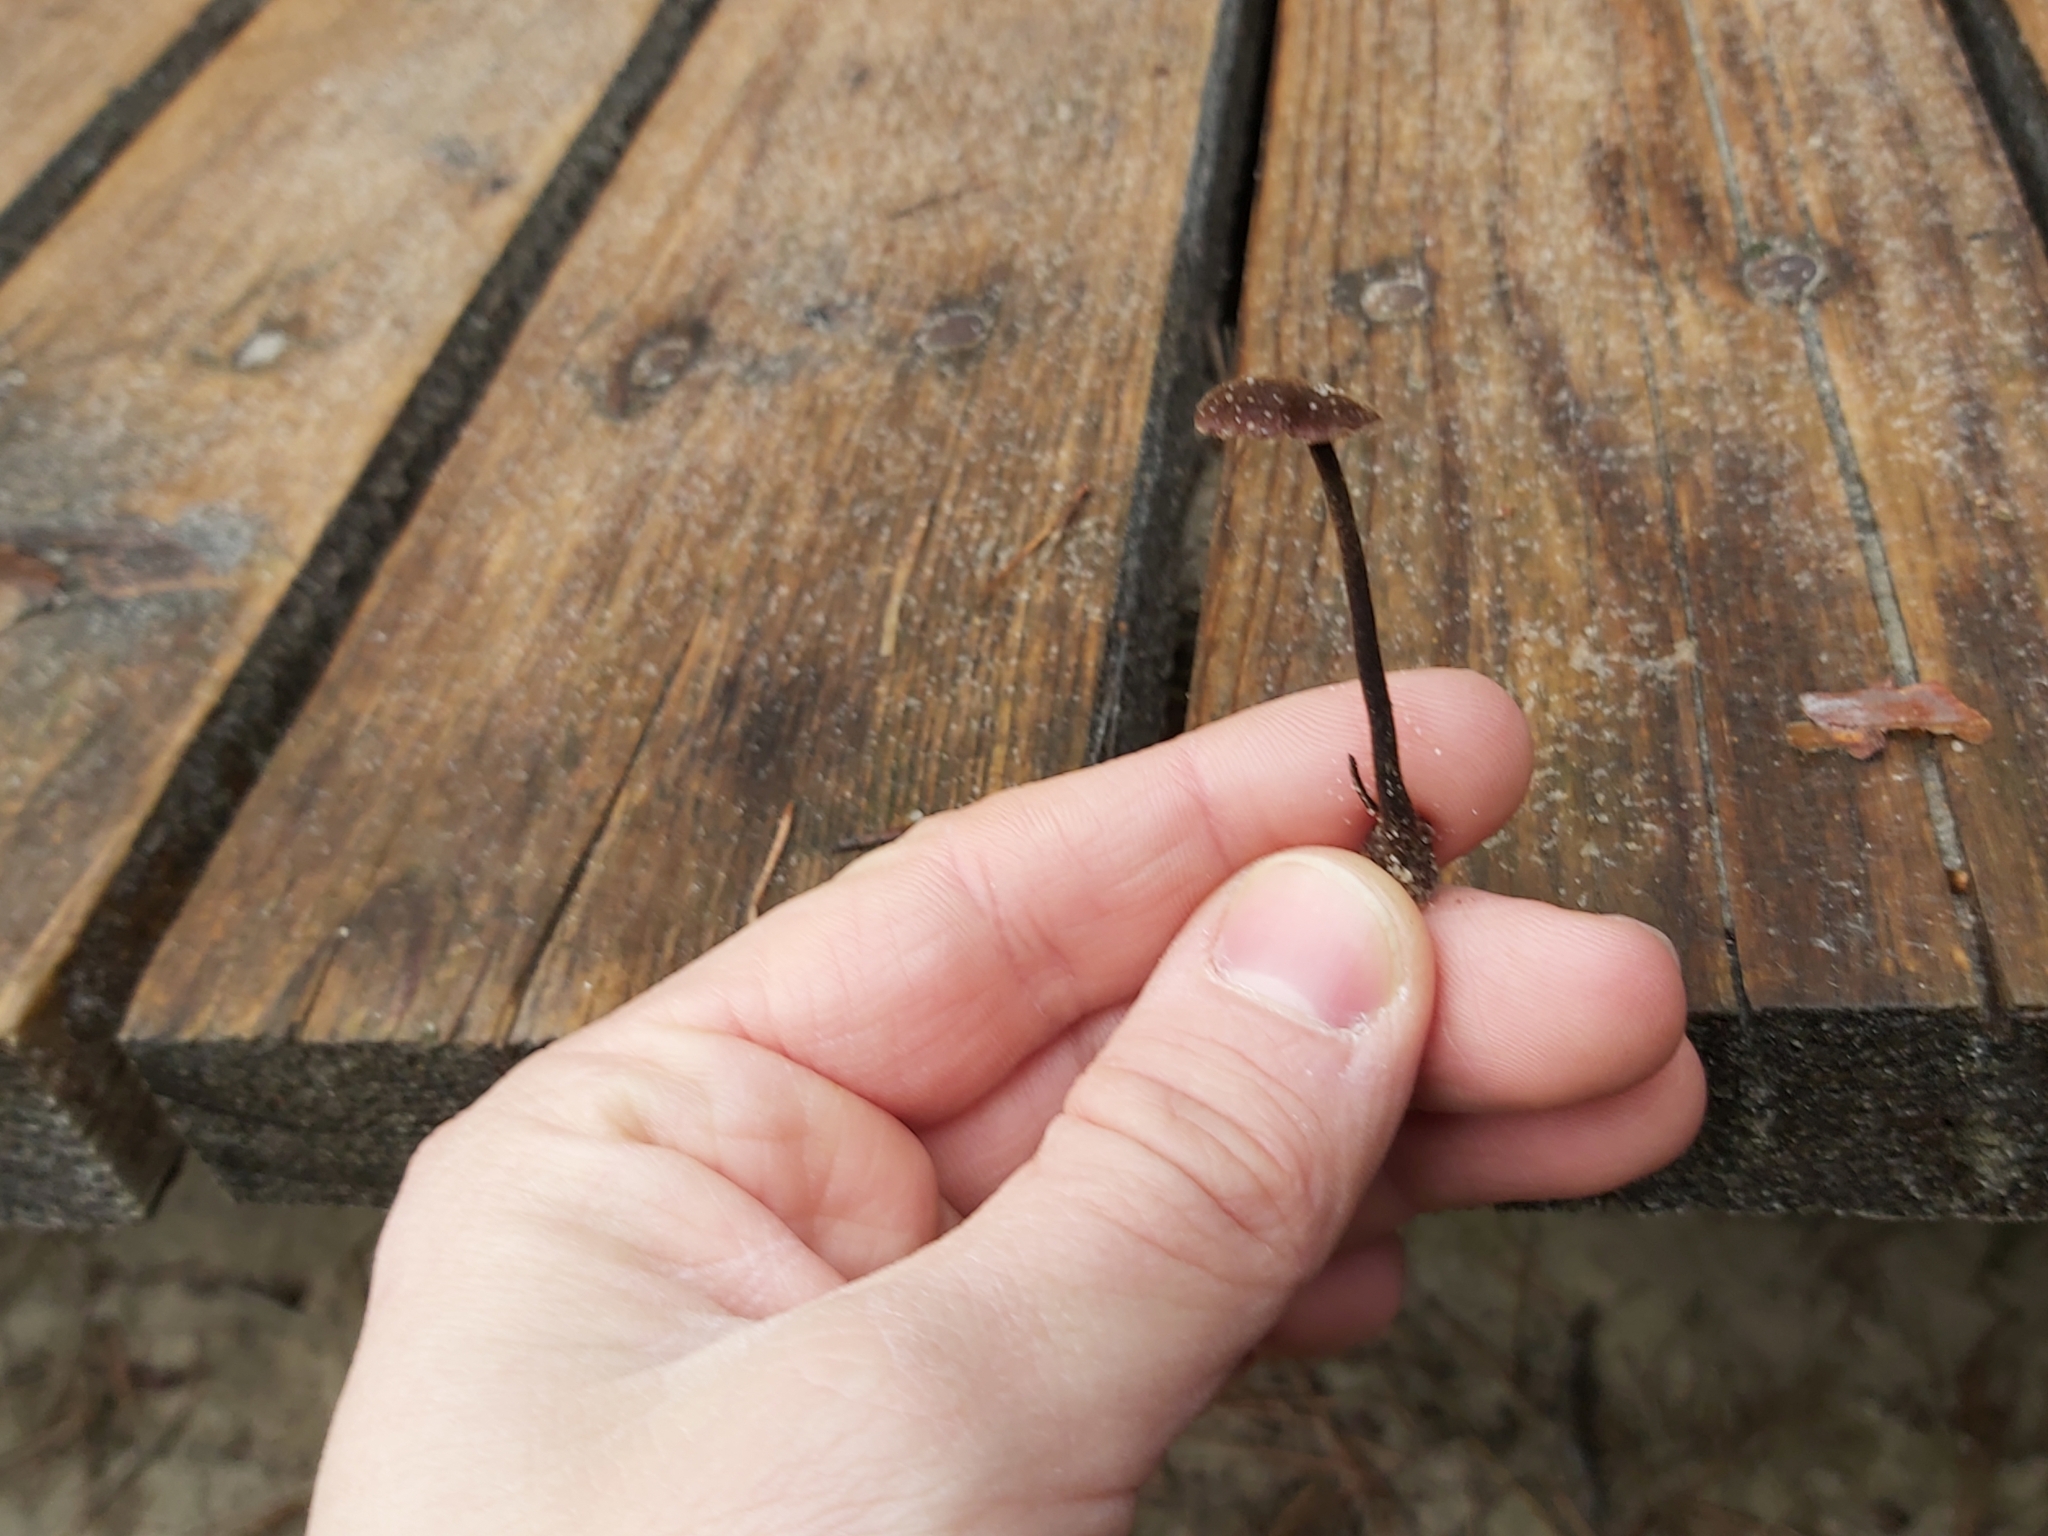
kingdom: Fungi
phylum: Basidiomycota
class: Agaricomycetes
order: Russulales
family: Auriscalpiaceae
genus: Auriscalpium
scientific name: Auriscalpium vulgare
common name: Earpick fungus
